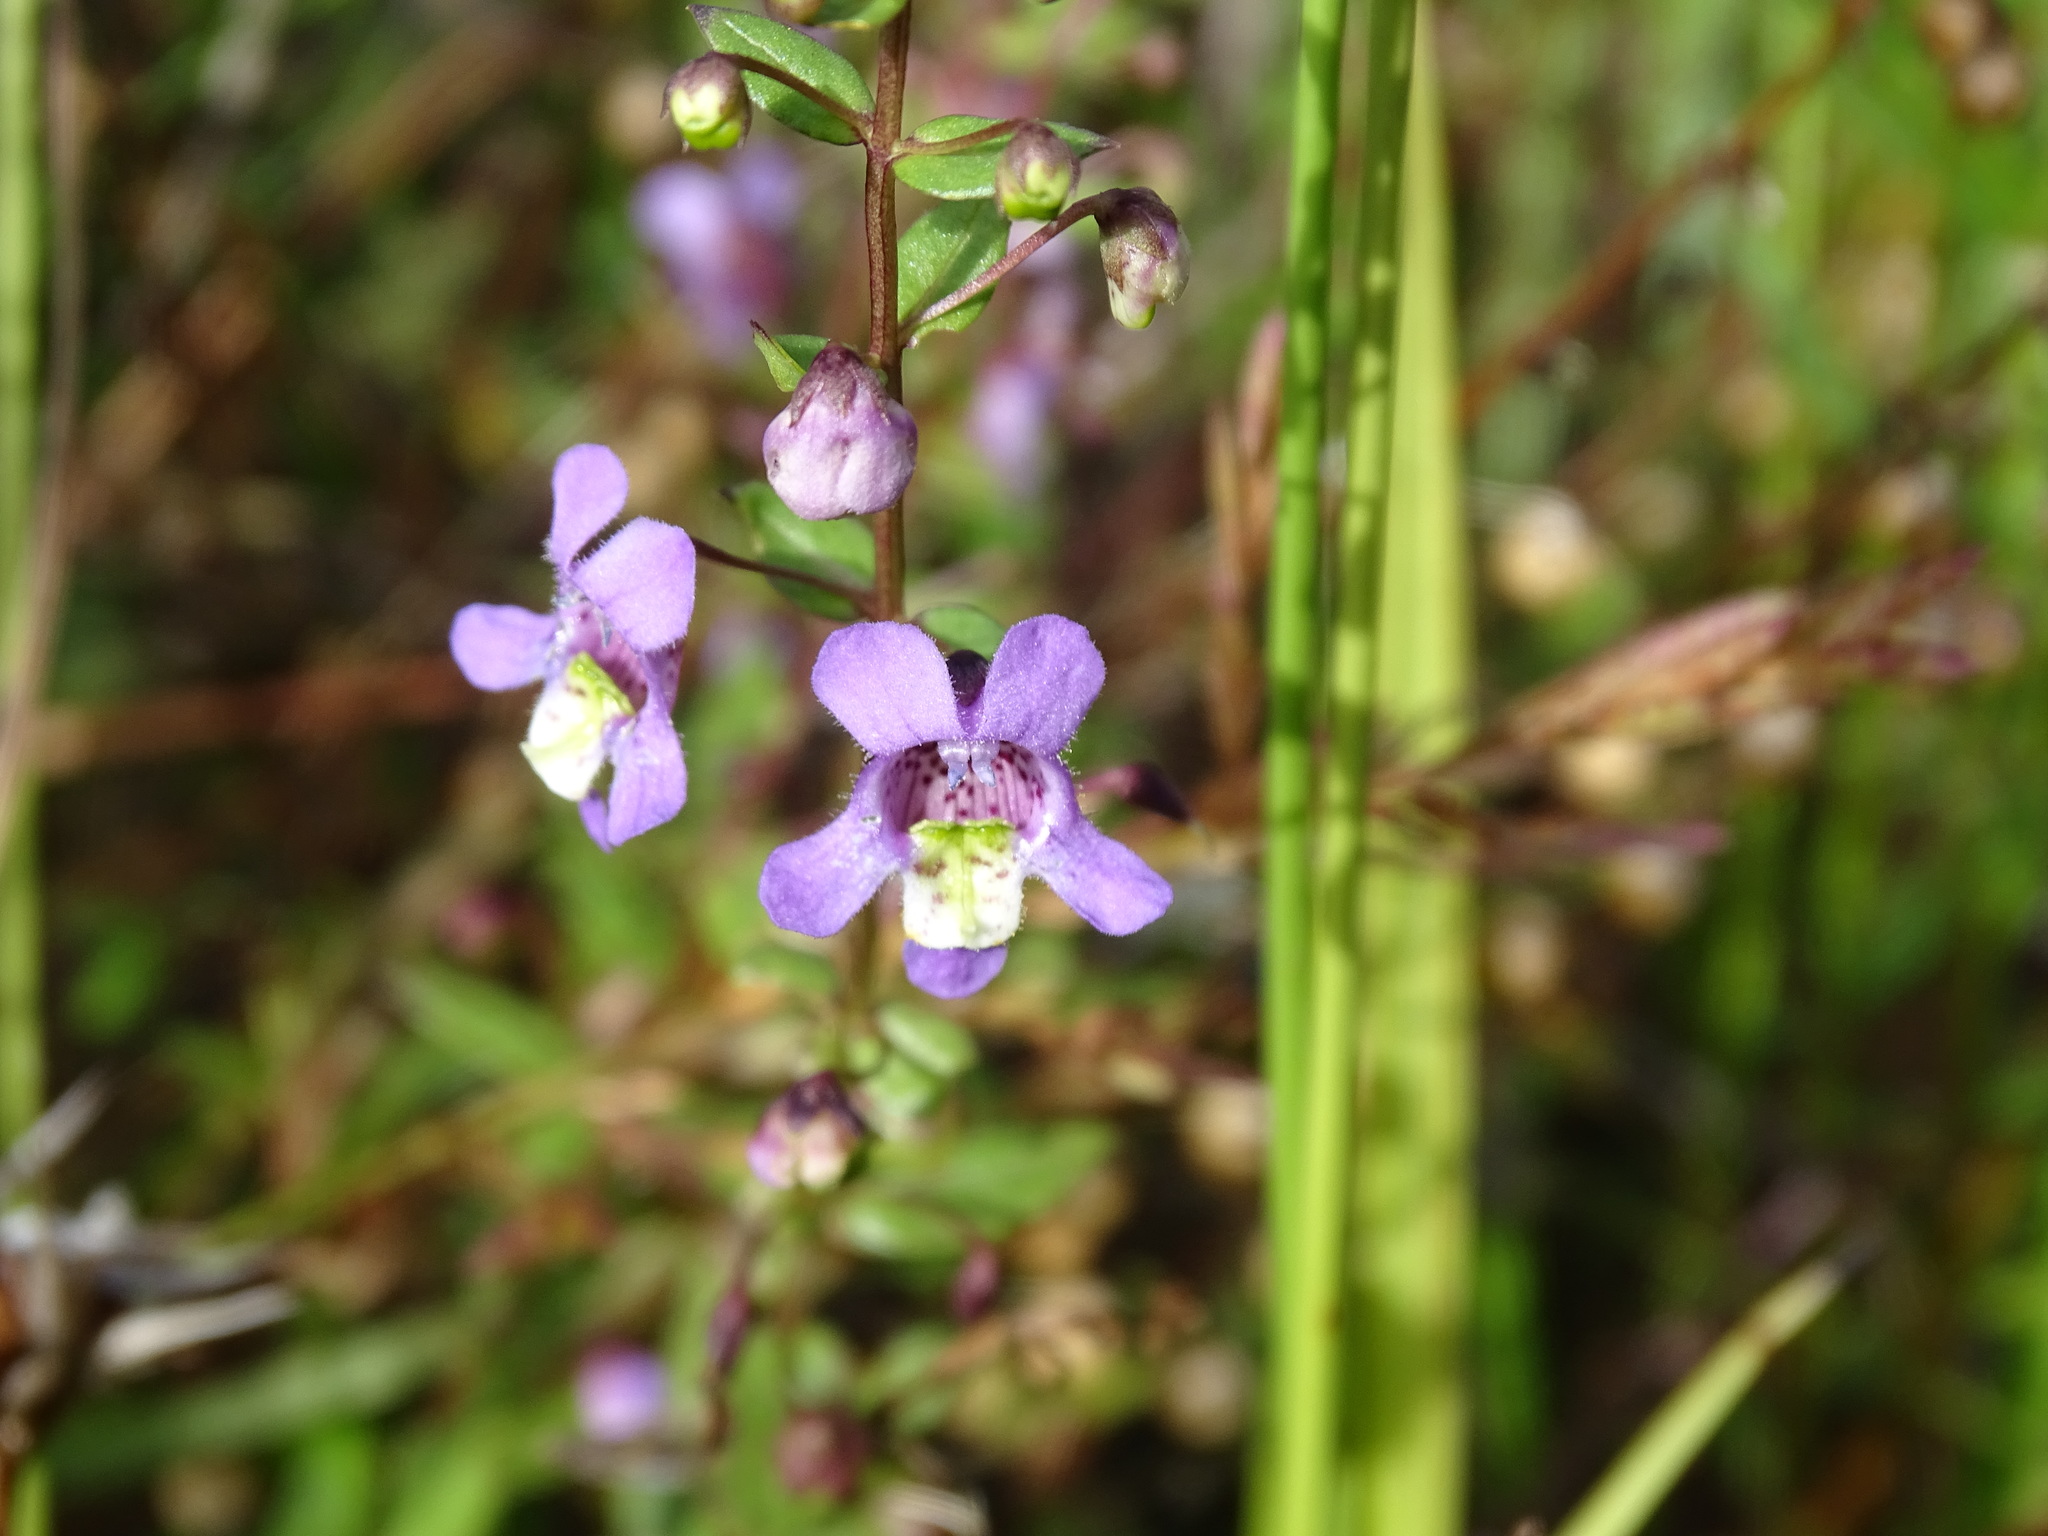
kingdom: Plantae
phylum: Tracheophyta
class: Magnoliopsida
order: Lamiales
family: Plantaginaceae
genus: Angelonia
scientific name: Angelonia angustifolia
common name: Narrowleaf angelon
